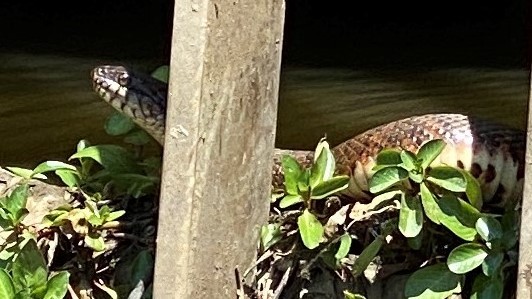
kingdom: Animalia
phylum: Chordata
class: Squamata
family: Colubridae
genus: Nerodia
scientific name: Nerodia sipedon
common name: Northern water snake
